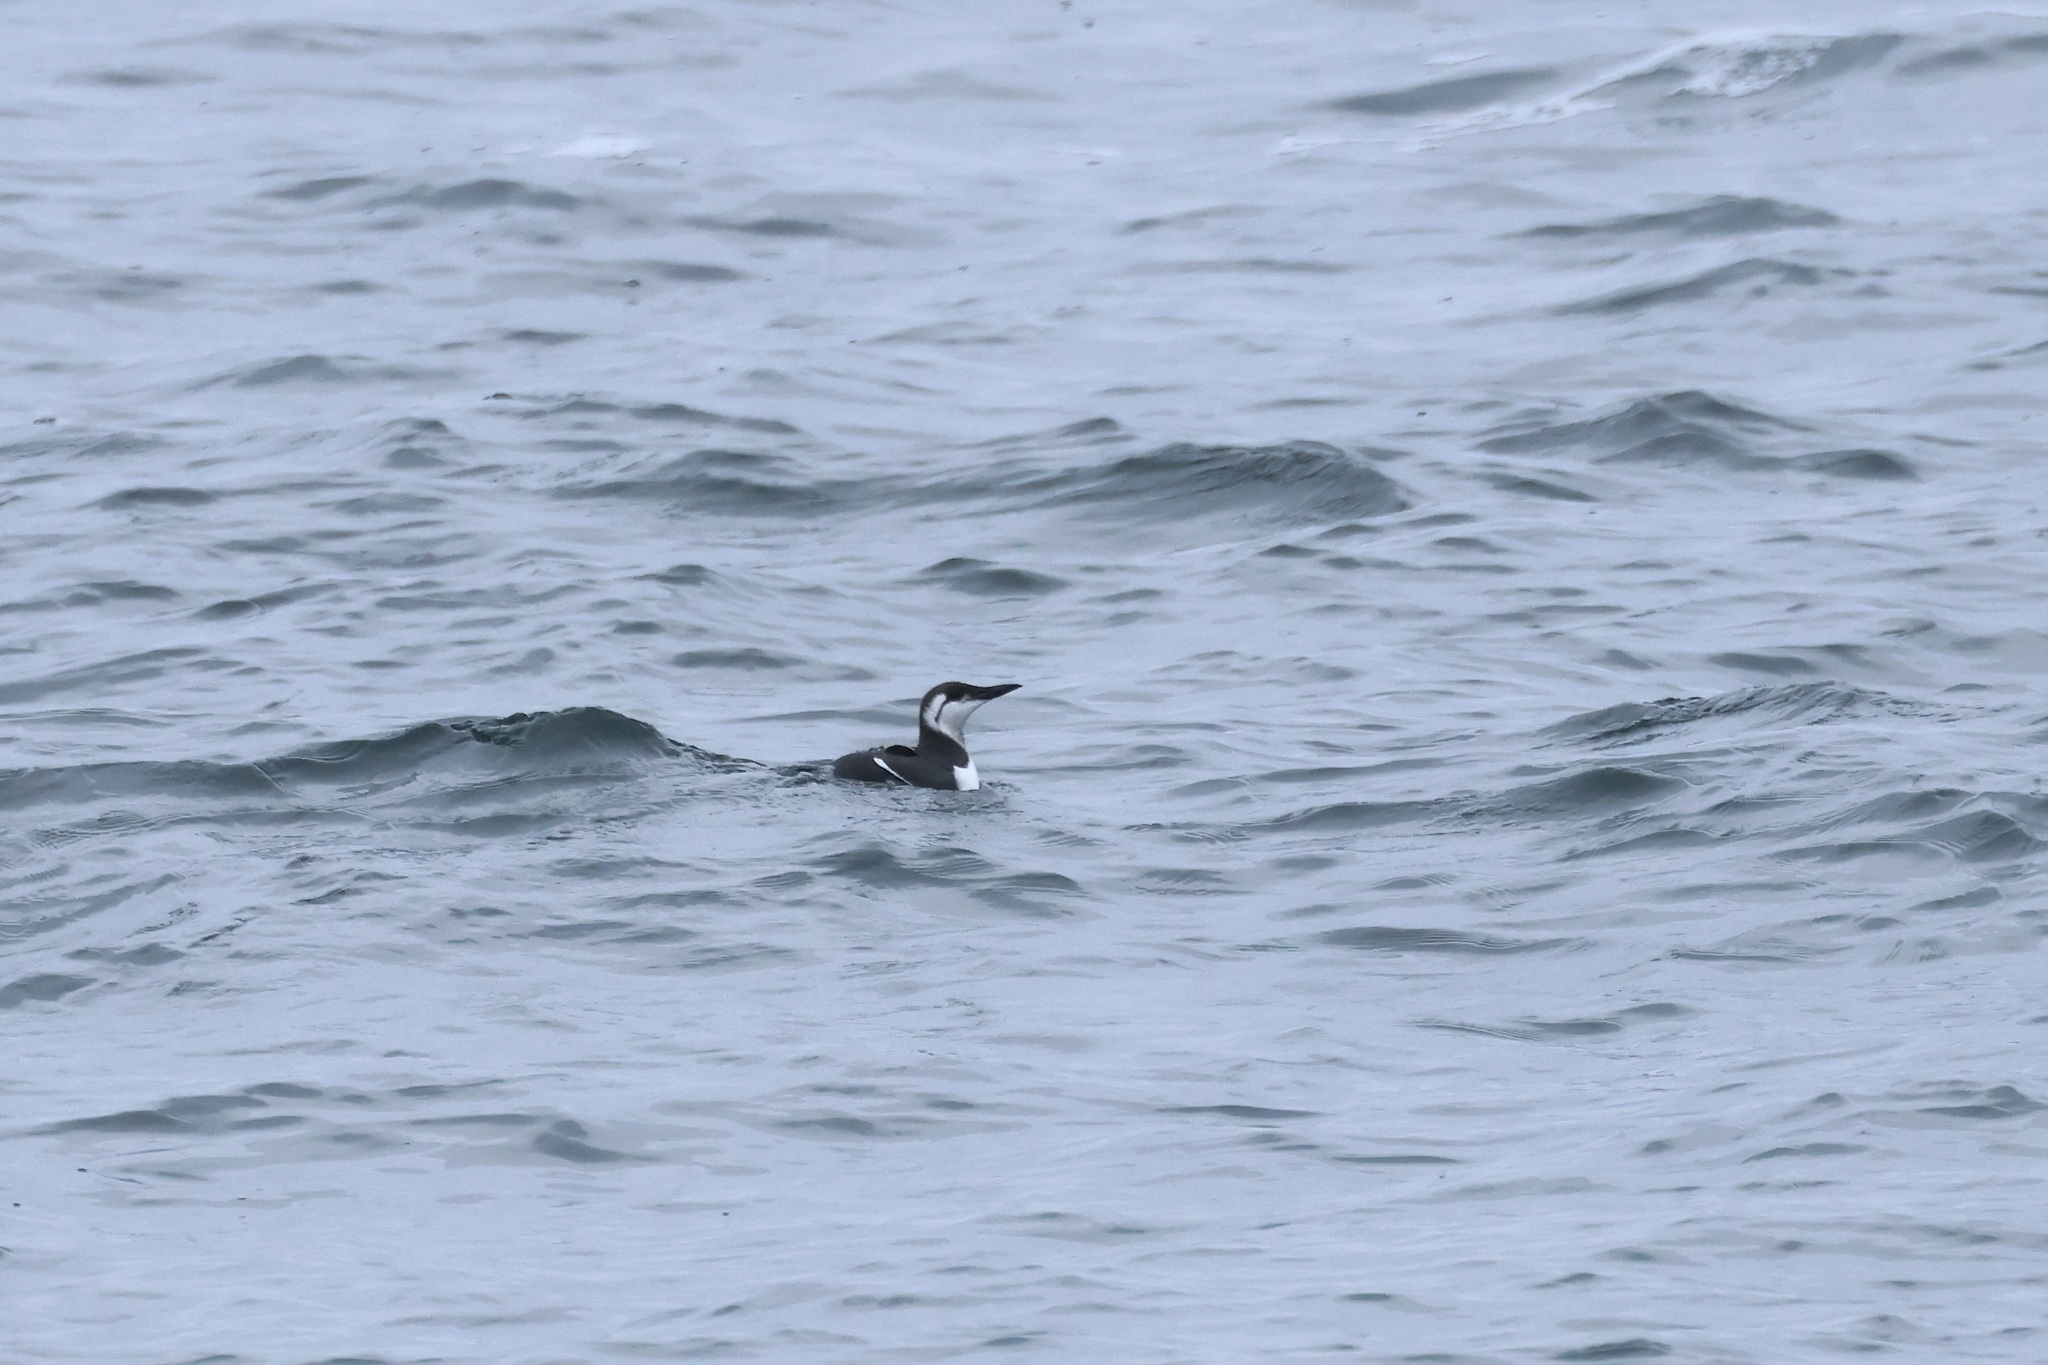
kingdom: Animalia
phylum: Chordata
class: Aves
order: Charadriiformes
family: Alcidae
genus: Uria
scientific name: Uria aalge
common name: Common murre
